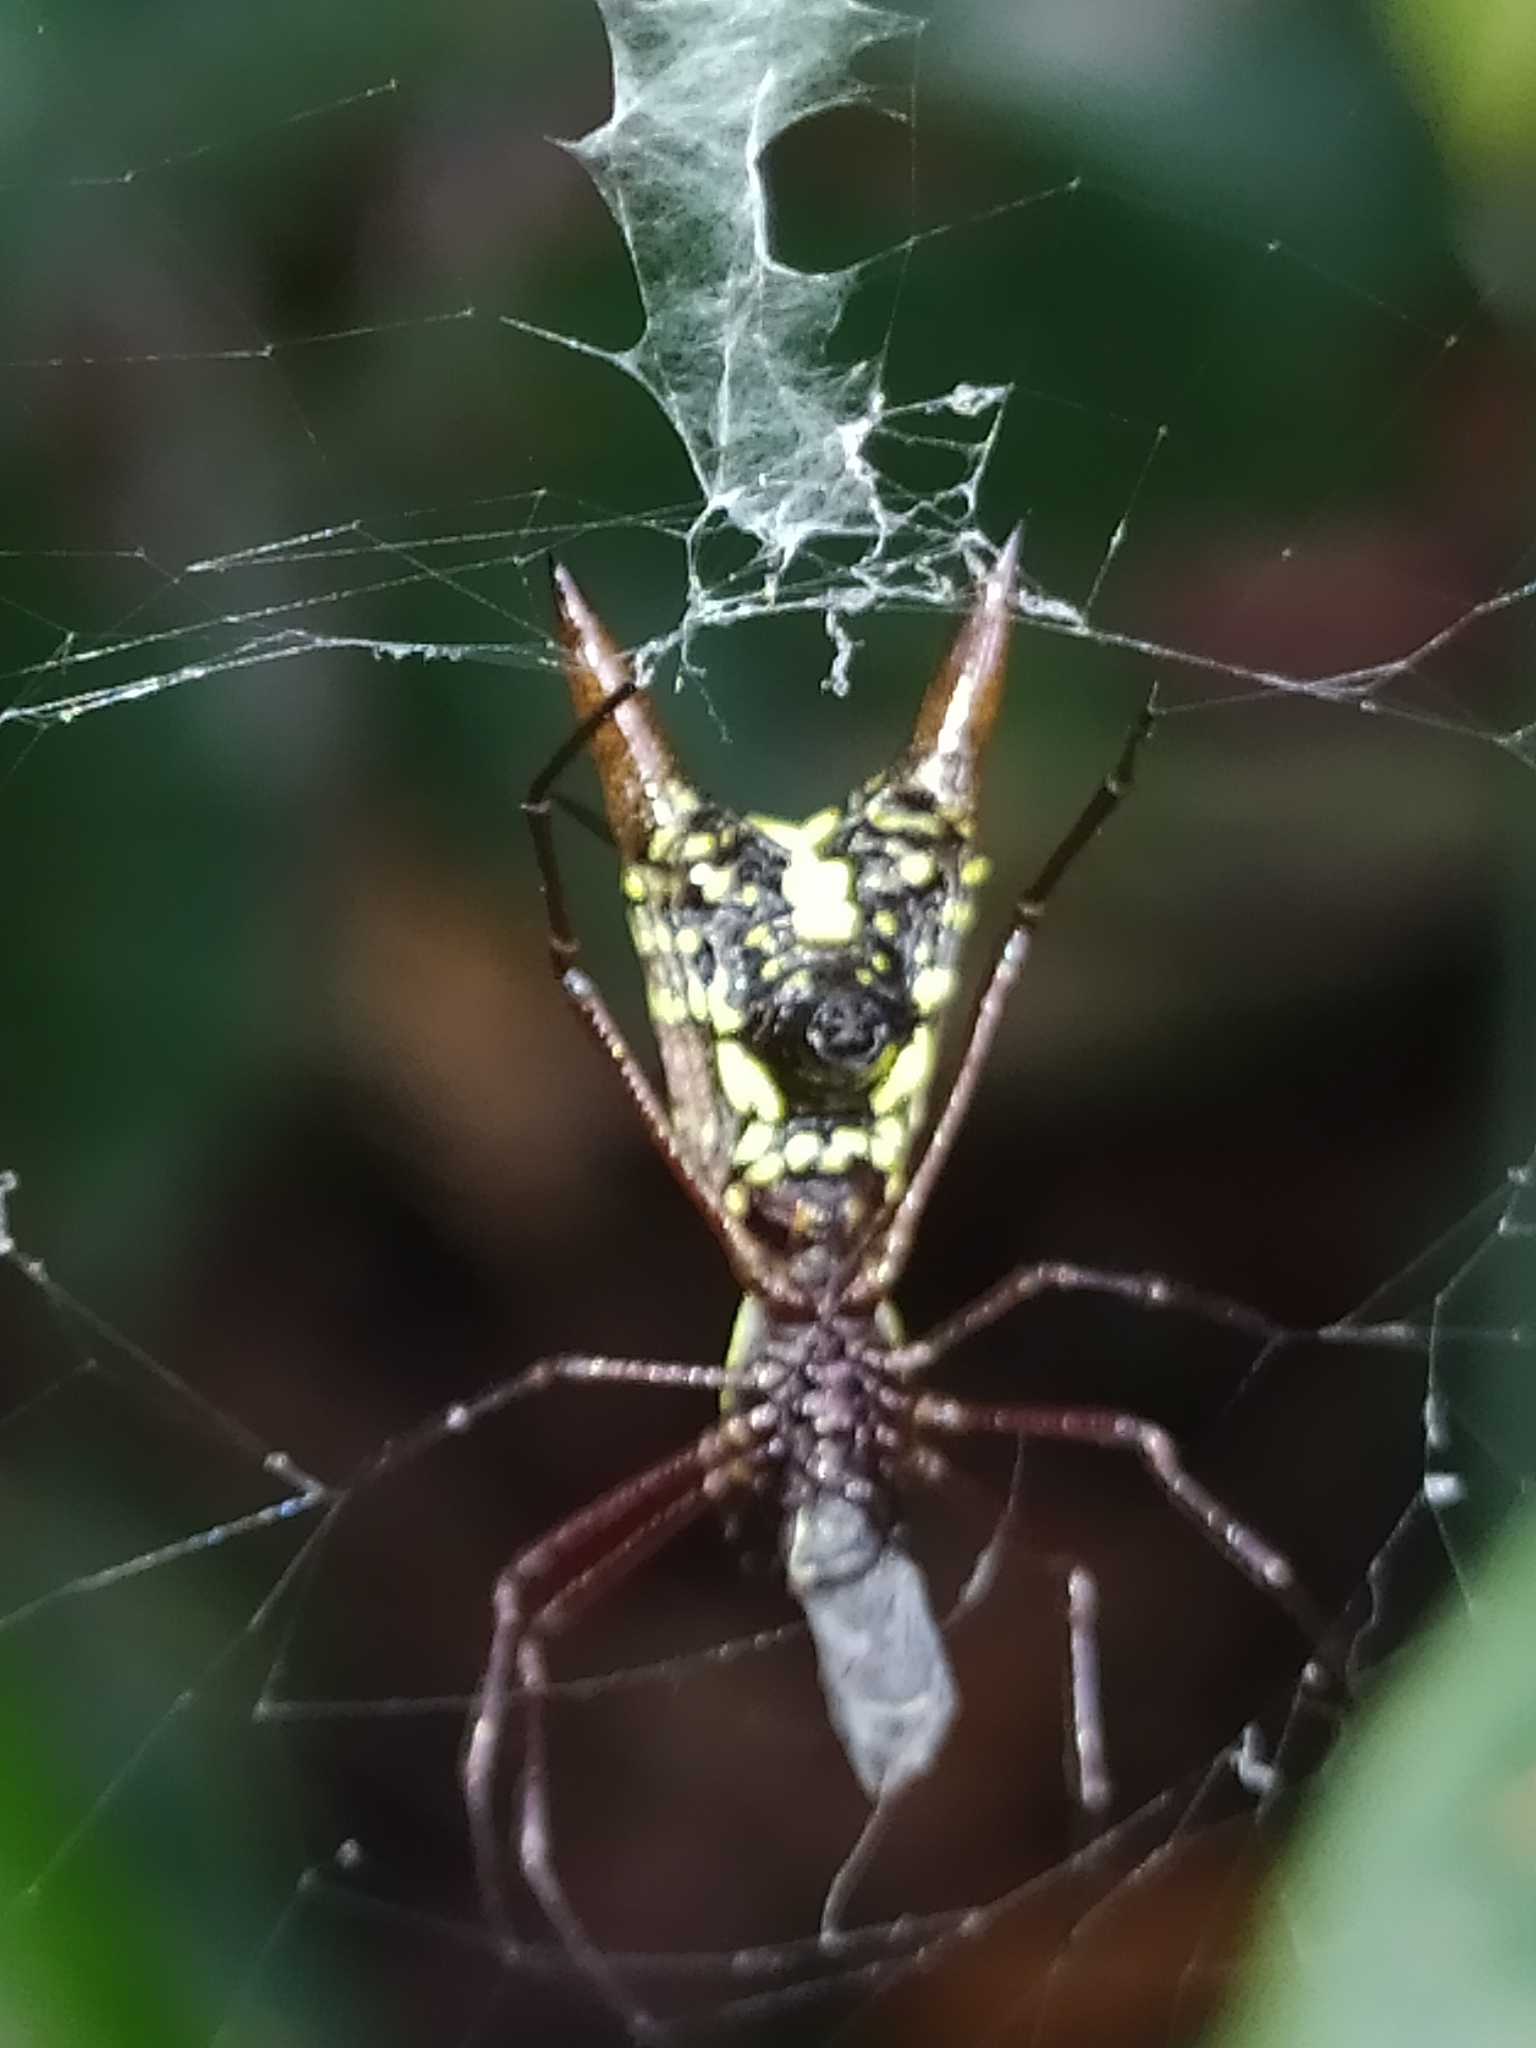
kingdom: Animalia
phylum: Arthropoda
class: Arachnida
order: Araneae
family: Araneidae
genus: Micrathena
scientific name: Micrathena sexspinosa
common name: Orb weavers
